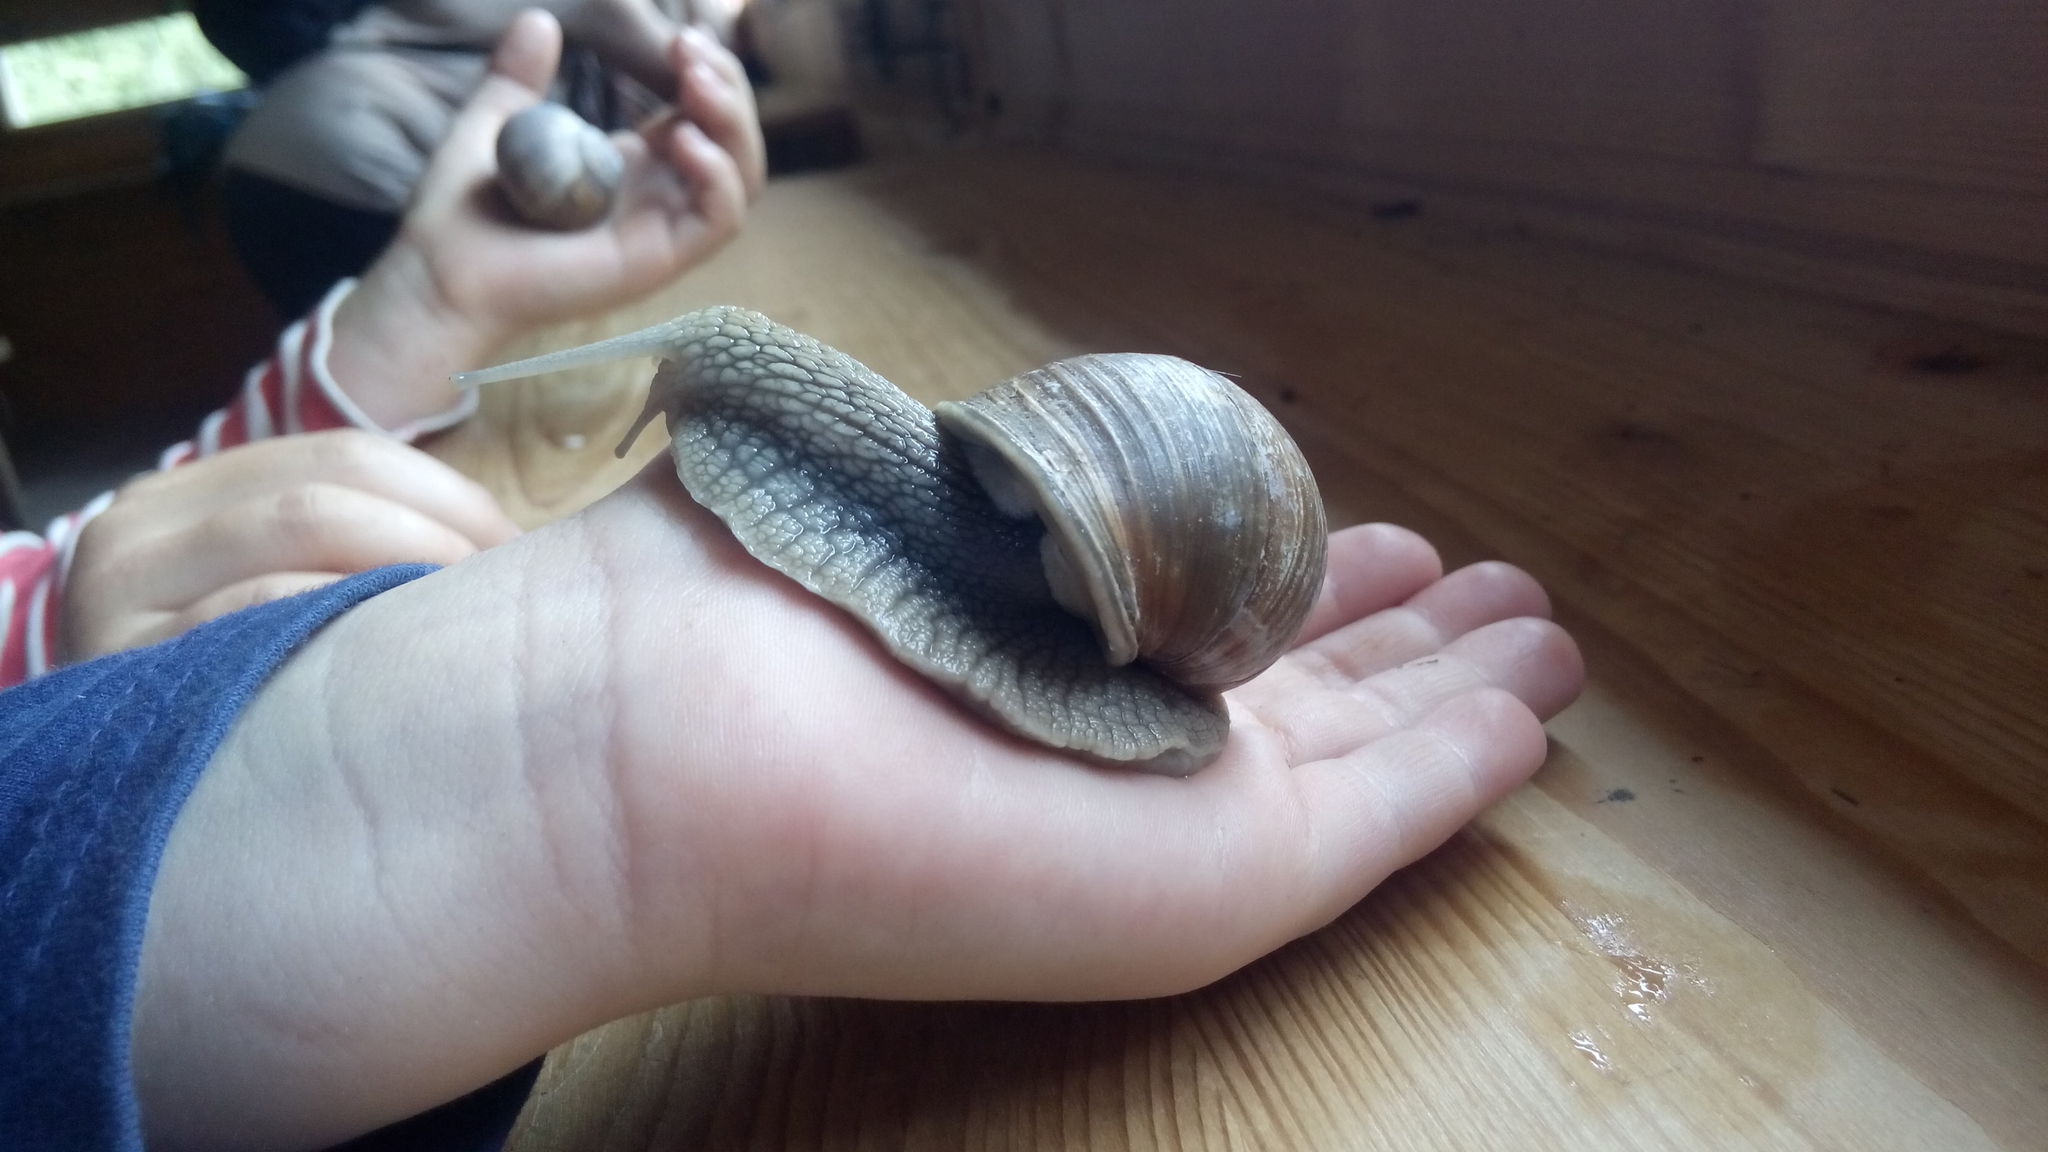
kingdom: Animalia
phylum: Mollusca
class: Gastropoda
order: Stylommatophora
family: Helicidae
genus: Helix
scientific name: Helix pomatia
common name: Roman snail
